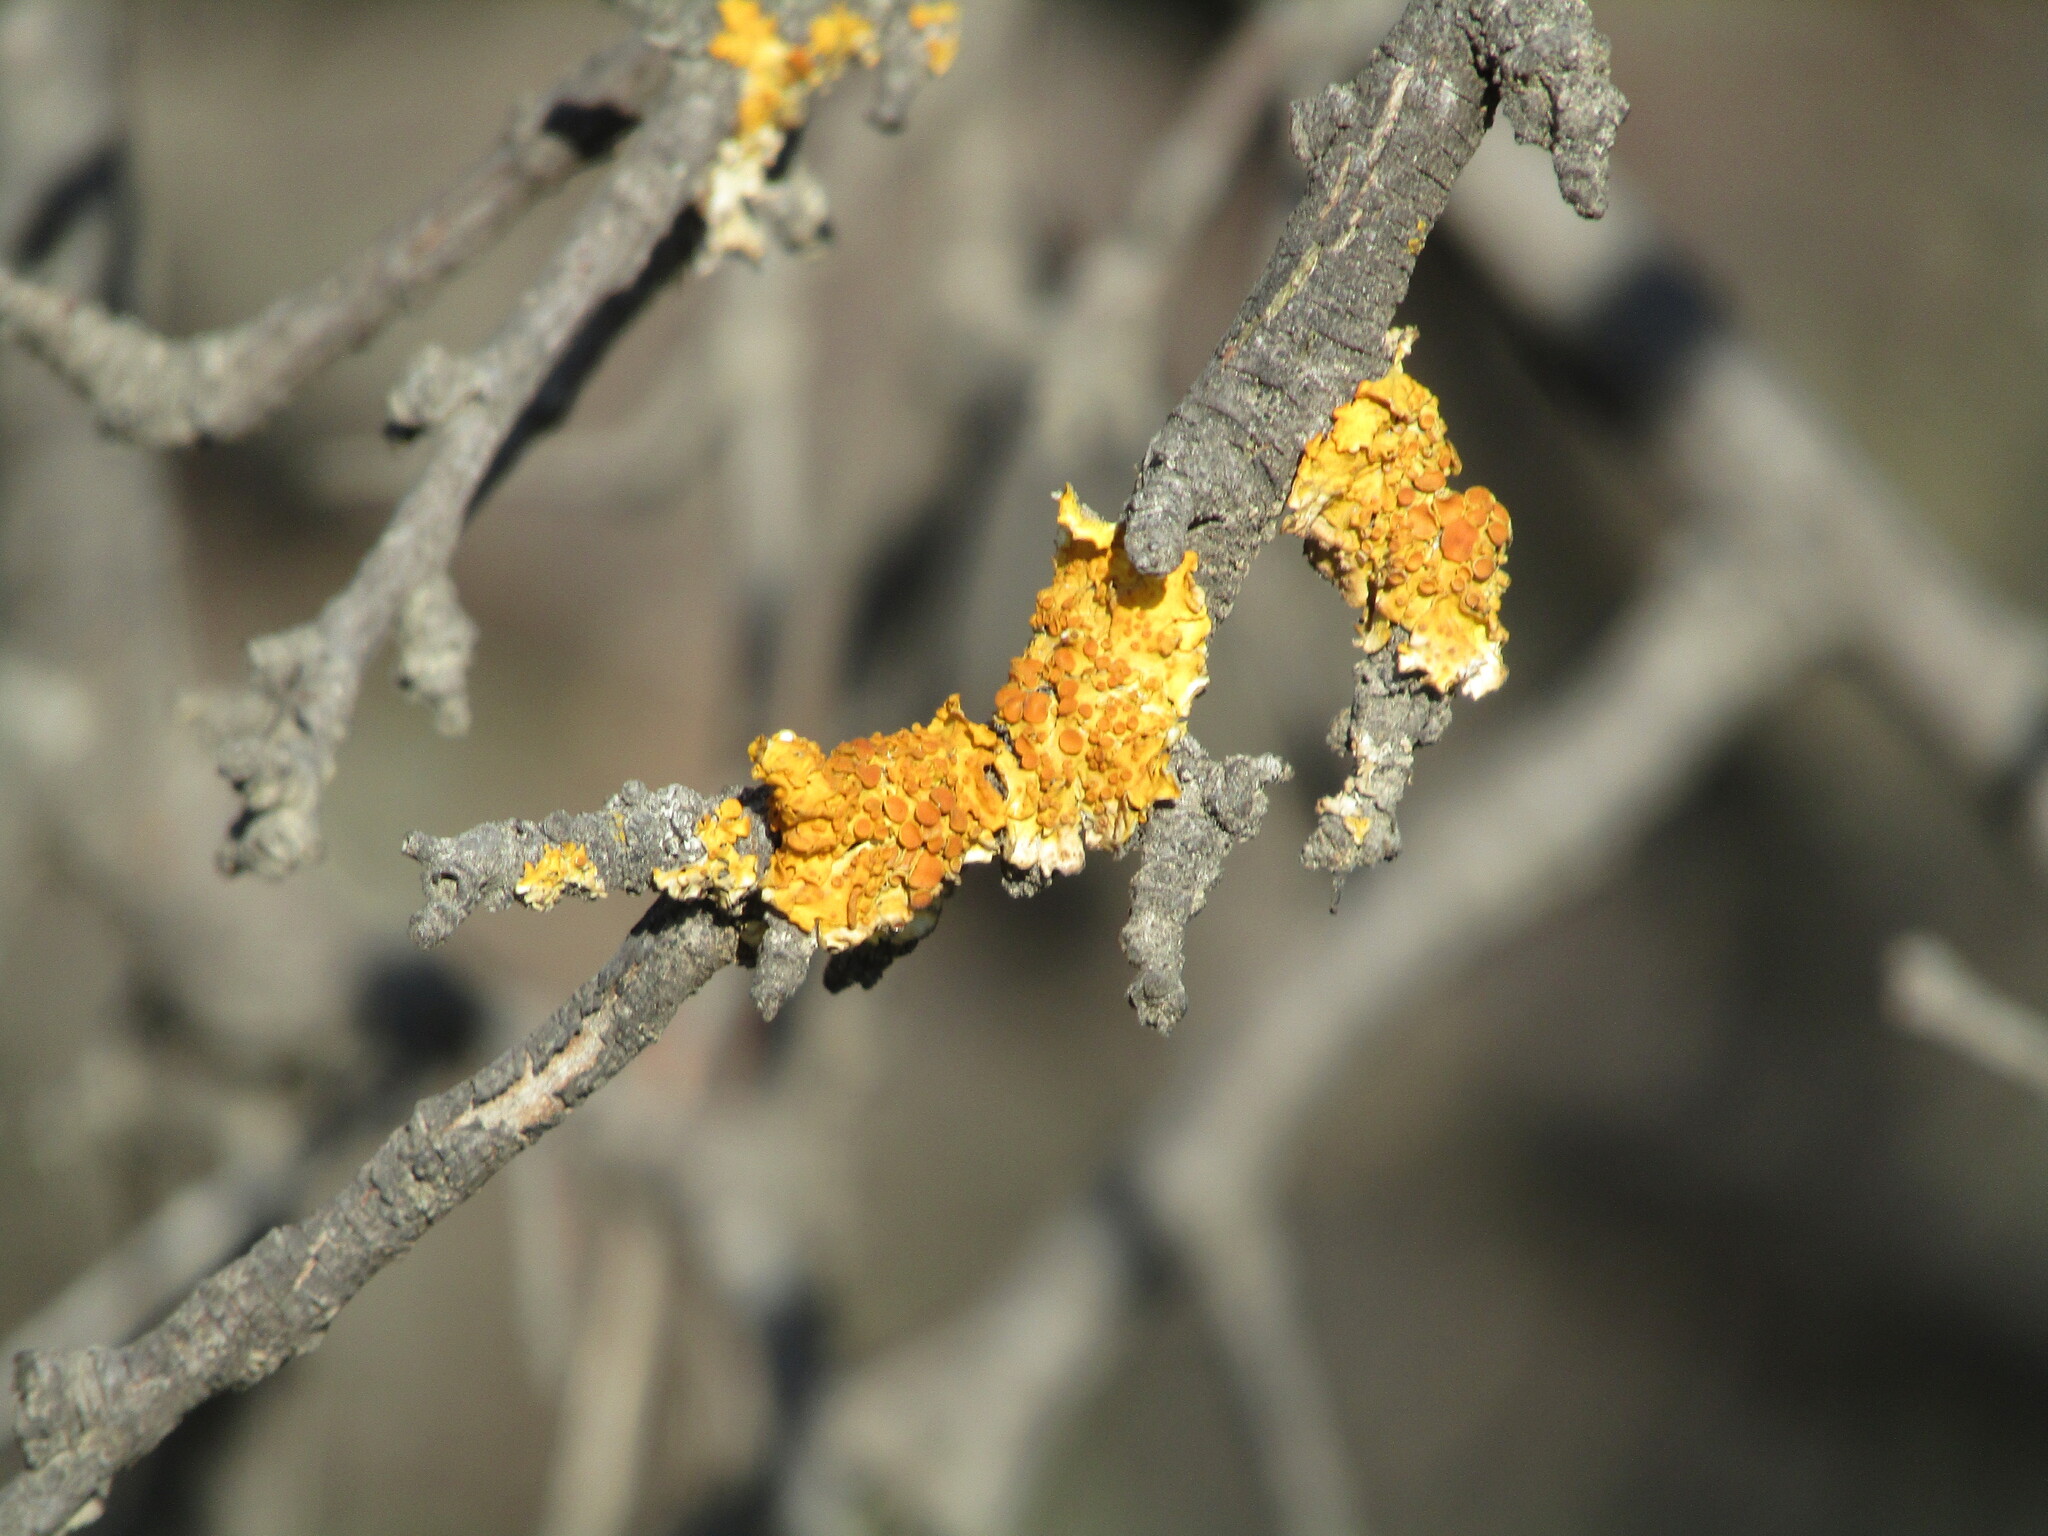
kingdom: Fungi
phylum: Ascomycota
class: Lecanoromycetes
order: Teloschistales
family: Teloschistaceae
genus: Xanthoria
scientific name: Xanthoria parietina
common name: Common orange lichen
